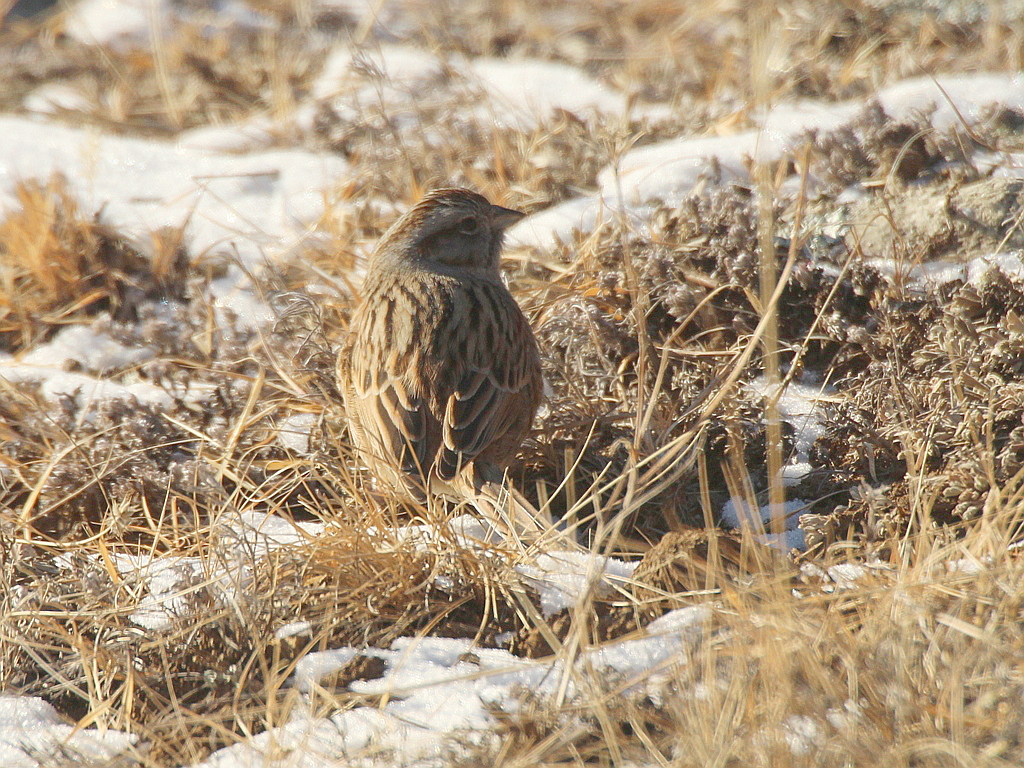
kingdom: Animalia
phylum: Chordata
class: Aves
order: Passeriformes
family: Emberizidae
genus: Emberiza
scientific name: Emberiza godlewskii
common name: Godlewski's bunting
